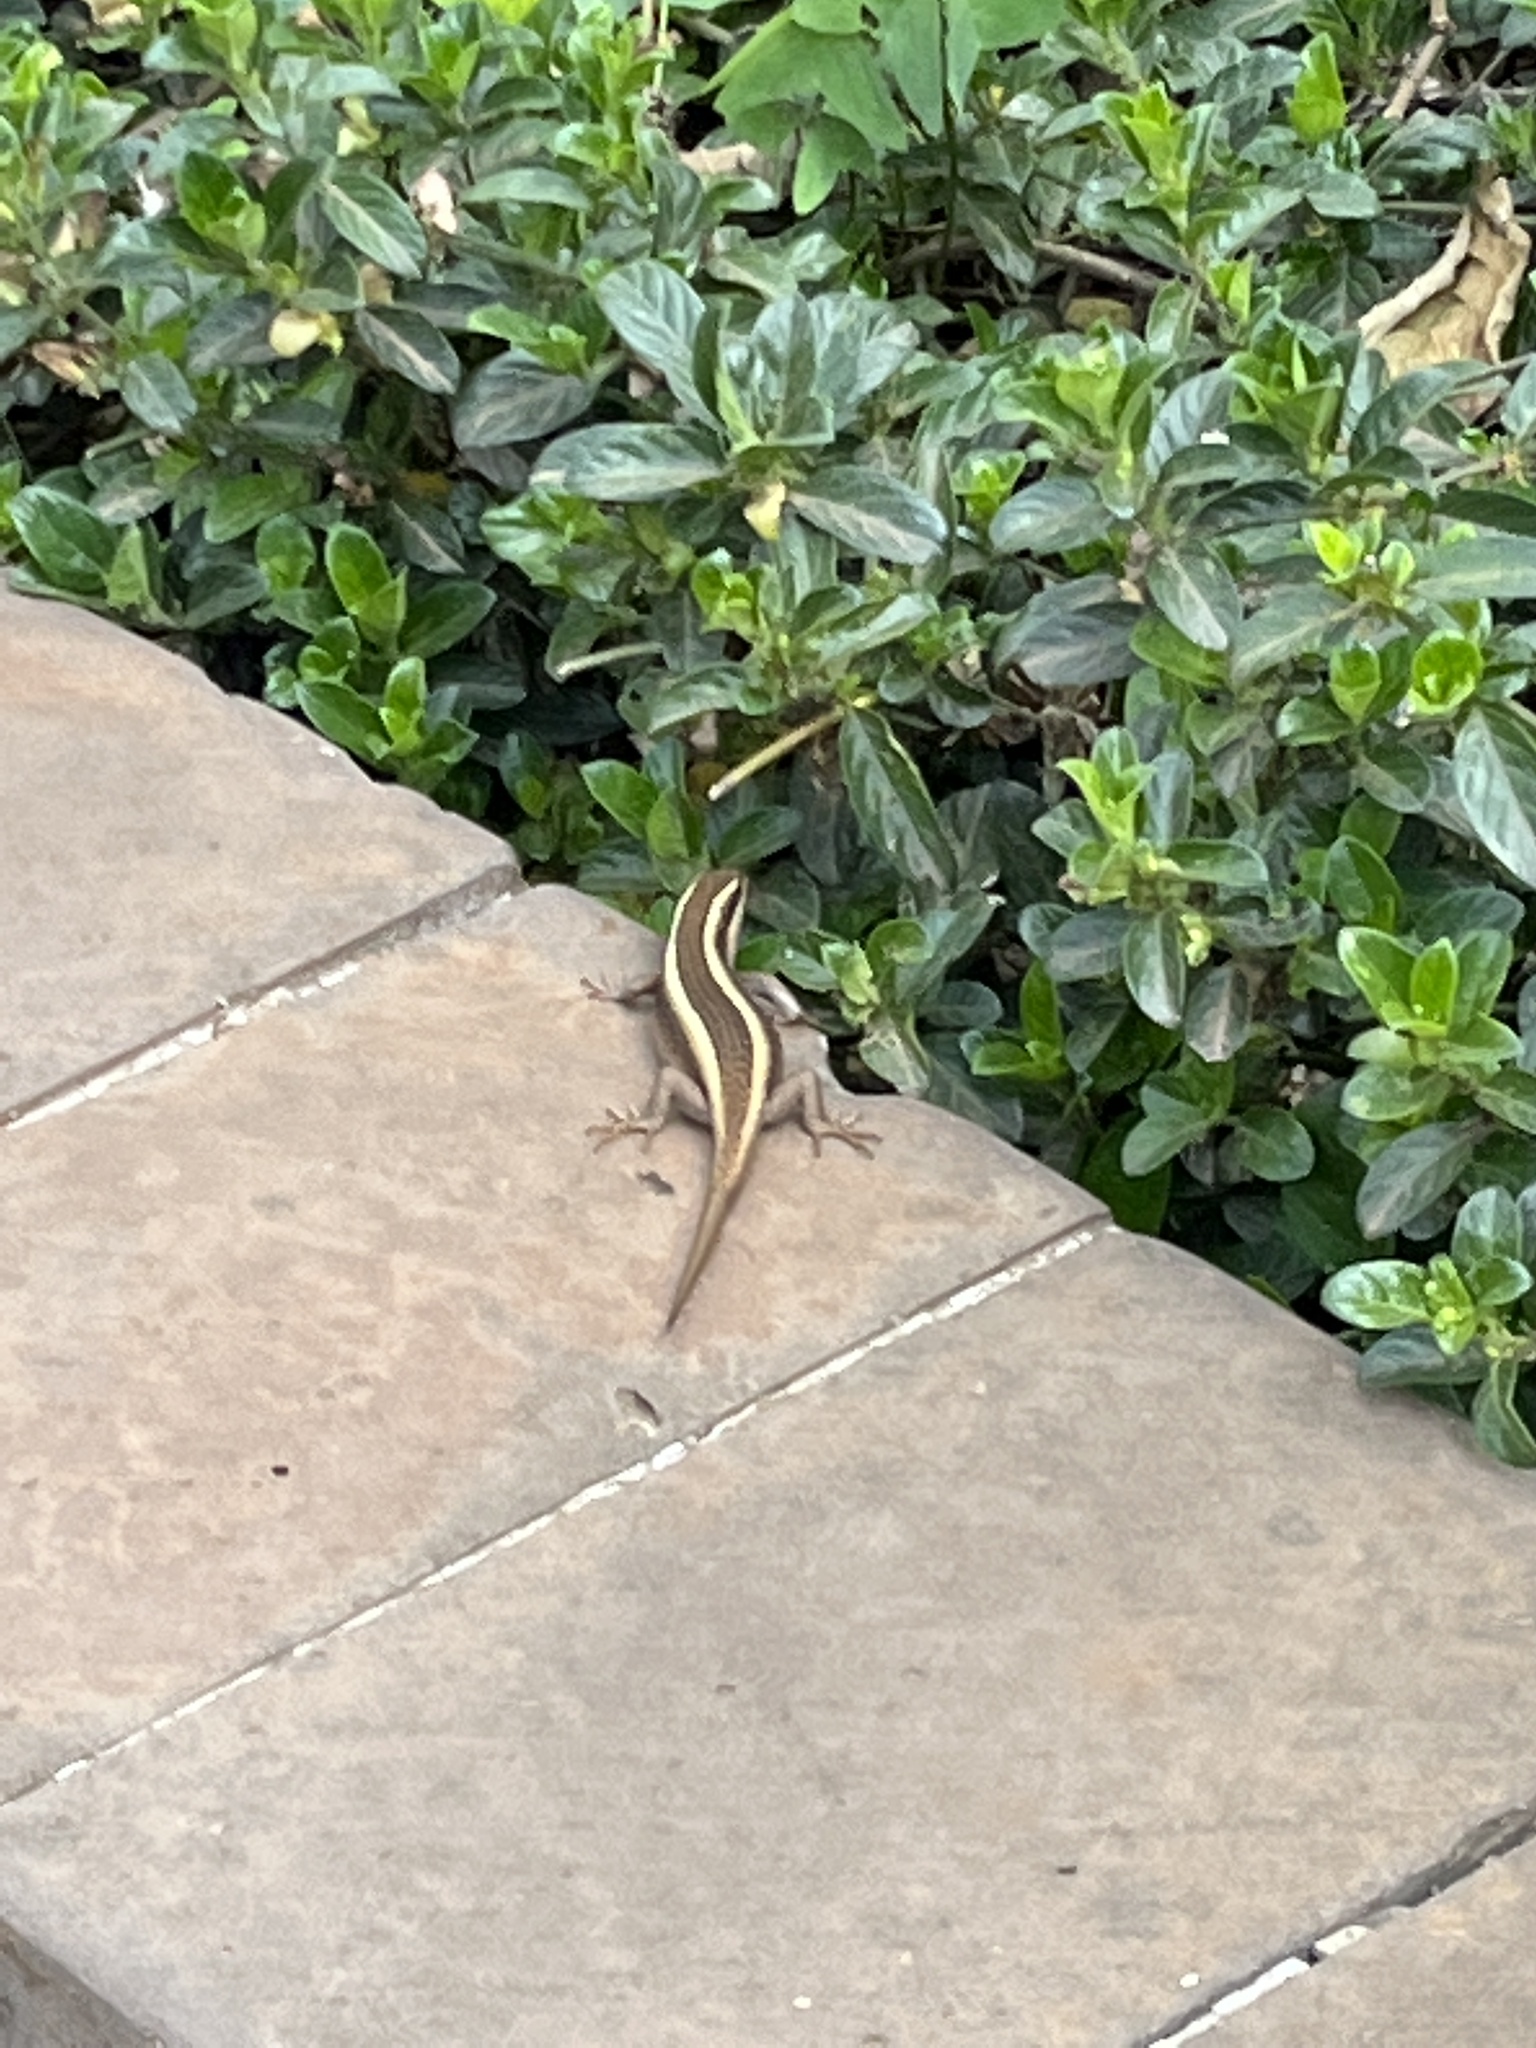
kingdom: Animalia
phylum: Chordata
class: Squamata
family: Scincidae
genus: Trachylepis
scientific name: Trachylepis striata
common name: African striped mabuya
